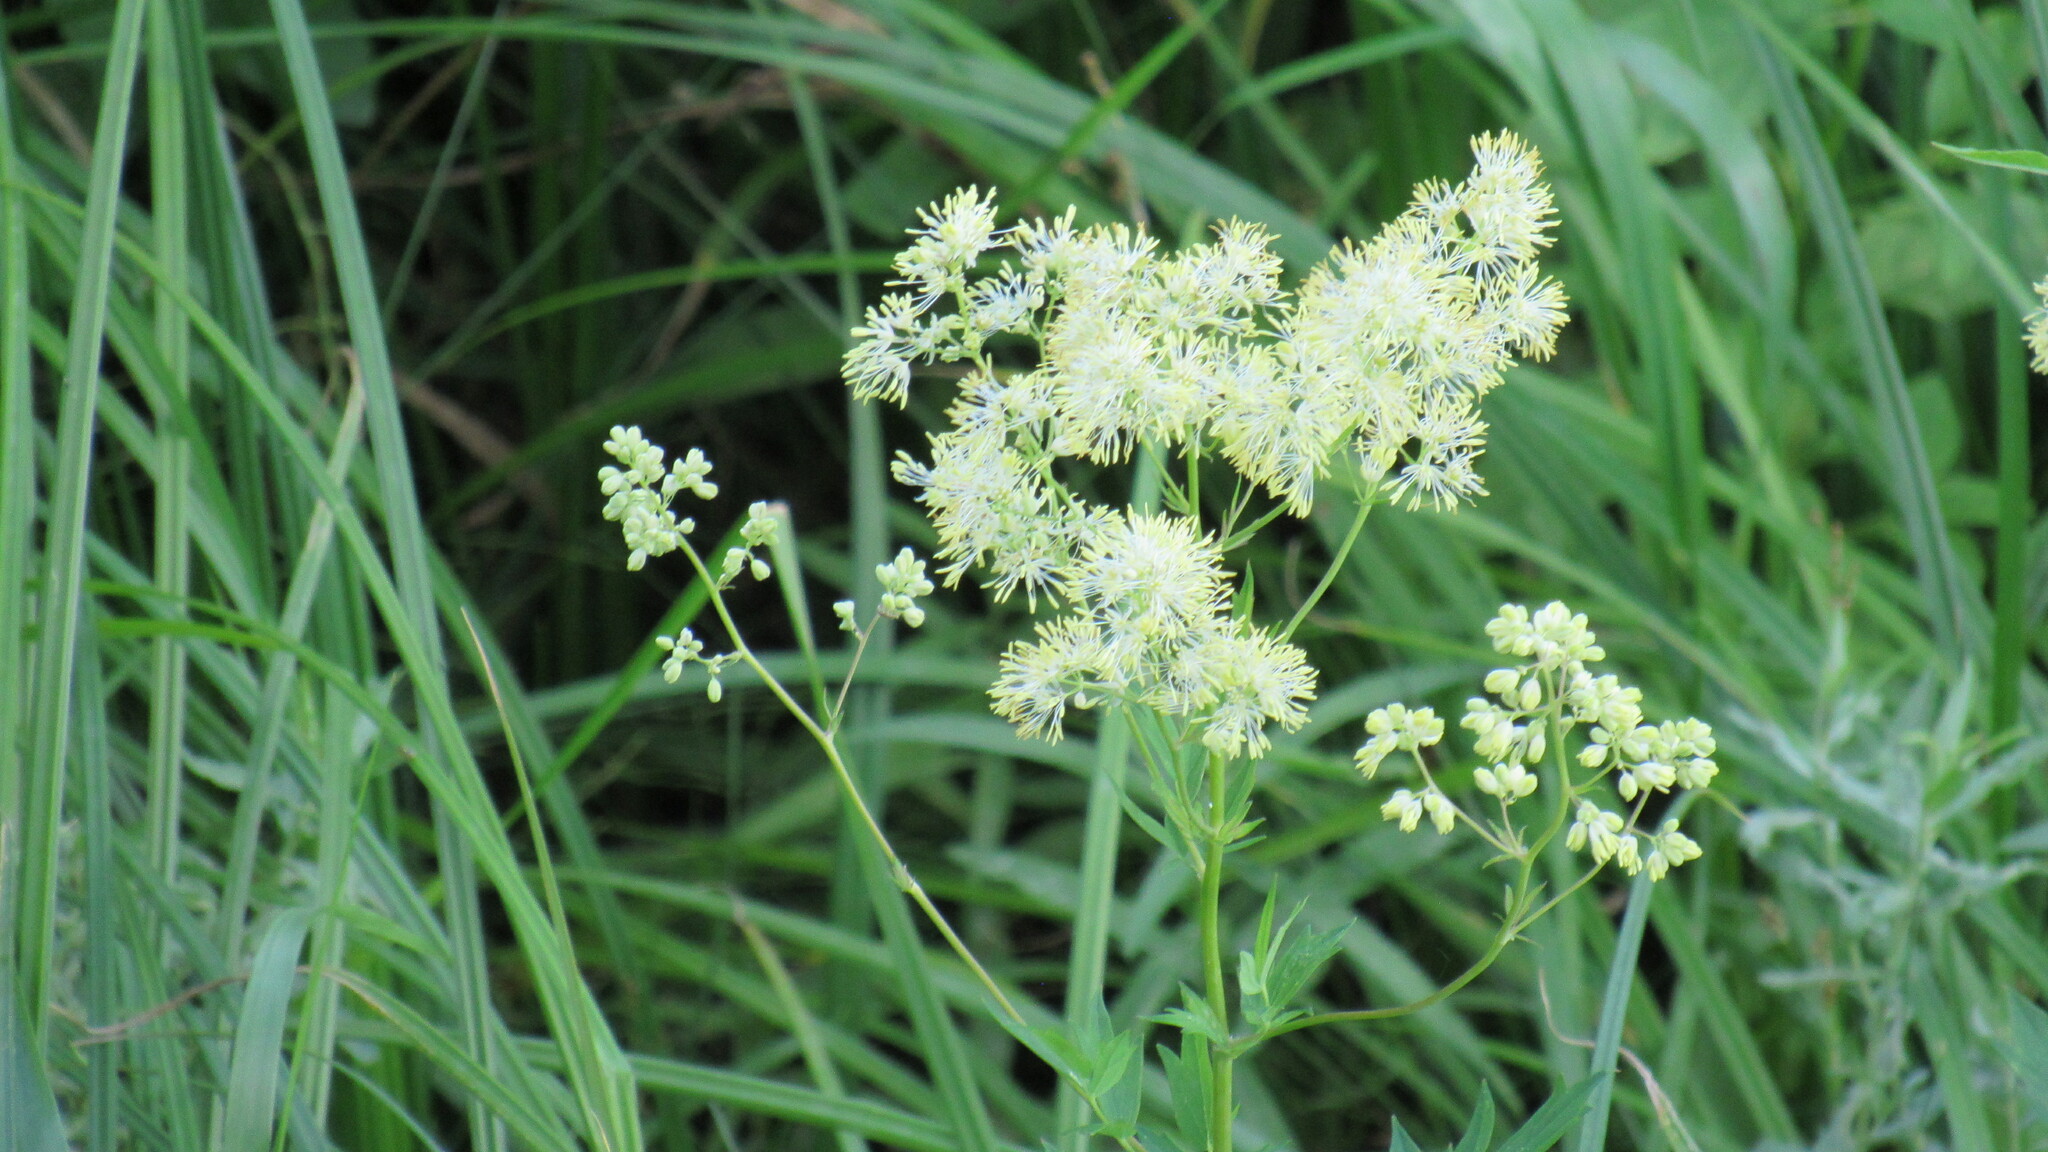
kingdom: Plantae
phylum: Tracheophyta
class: Magnoliopsida
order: Ranunculales
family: Ranunculaceae
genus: Thalictrum
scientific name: Thalictrum flavum
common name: Common meadow-rue
